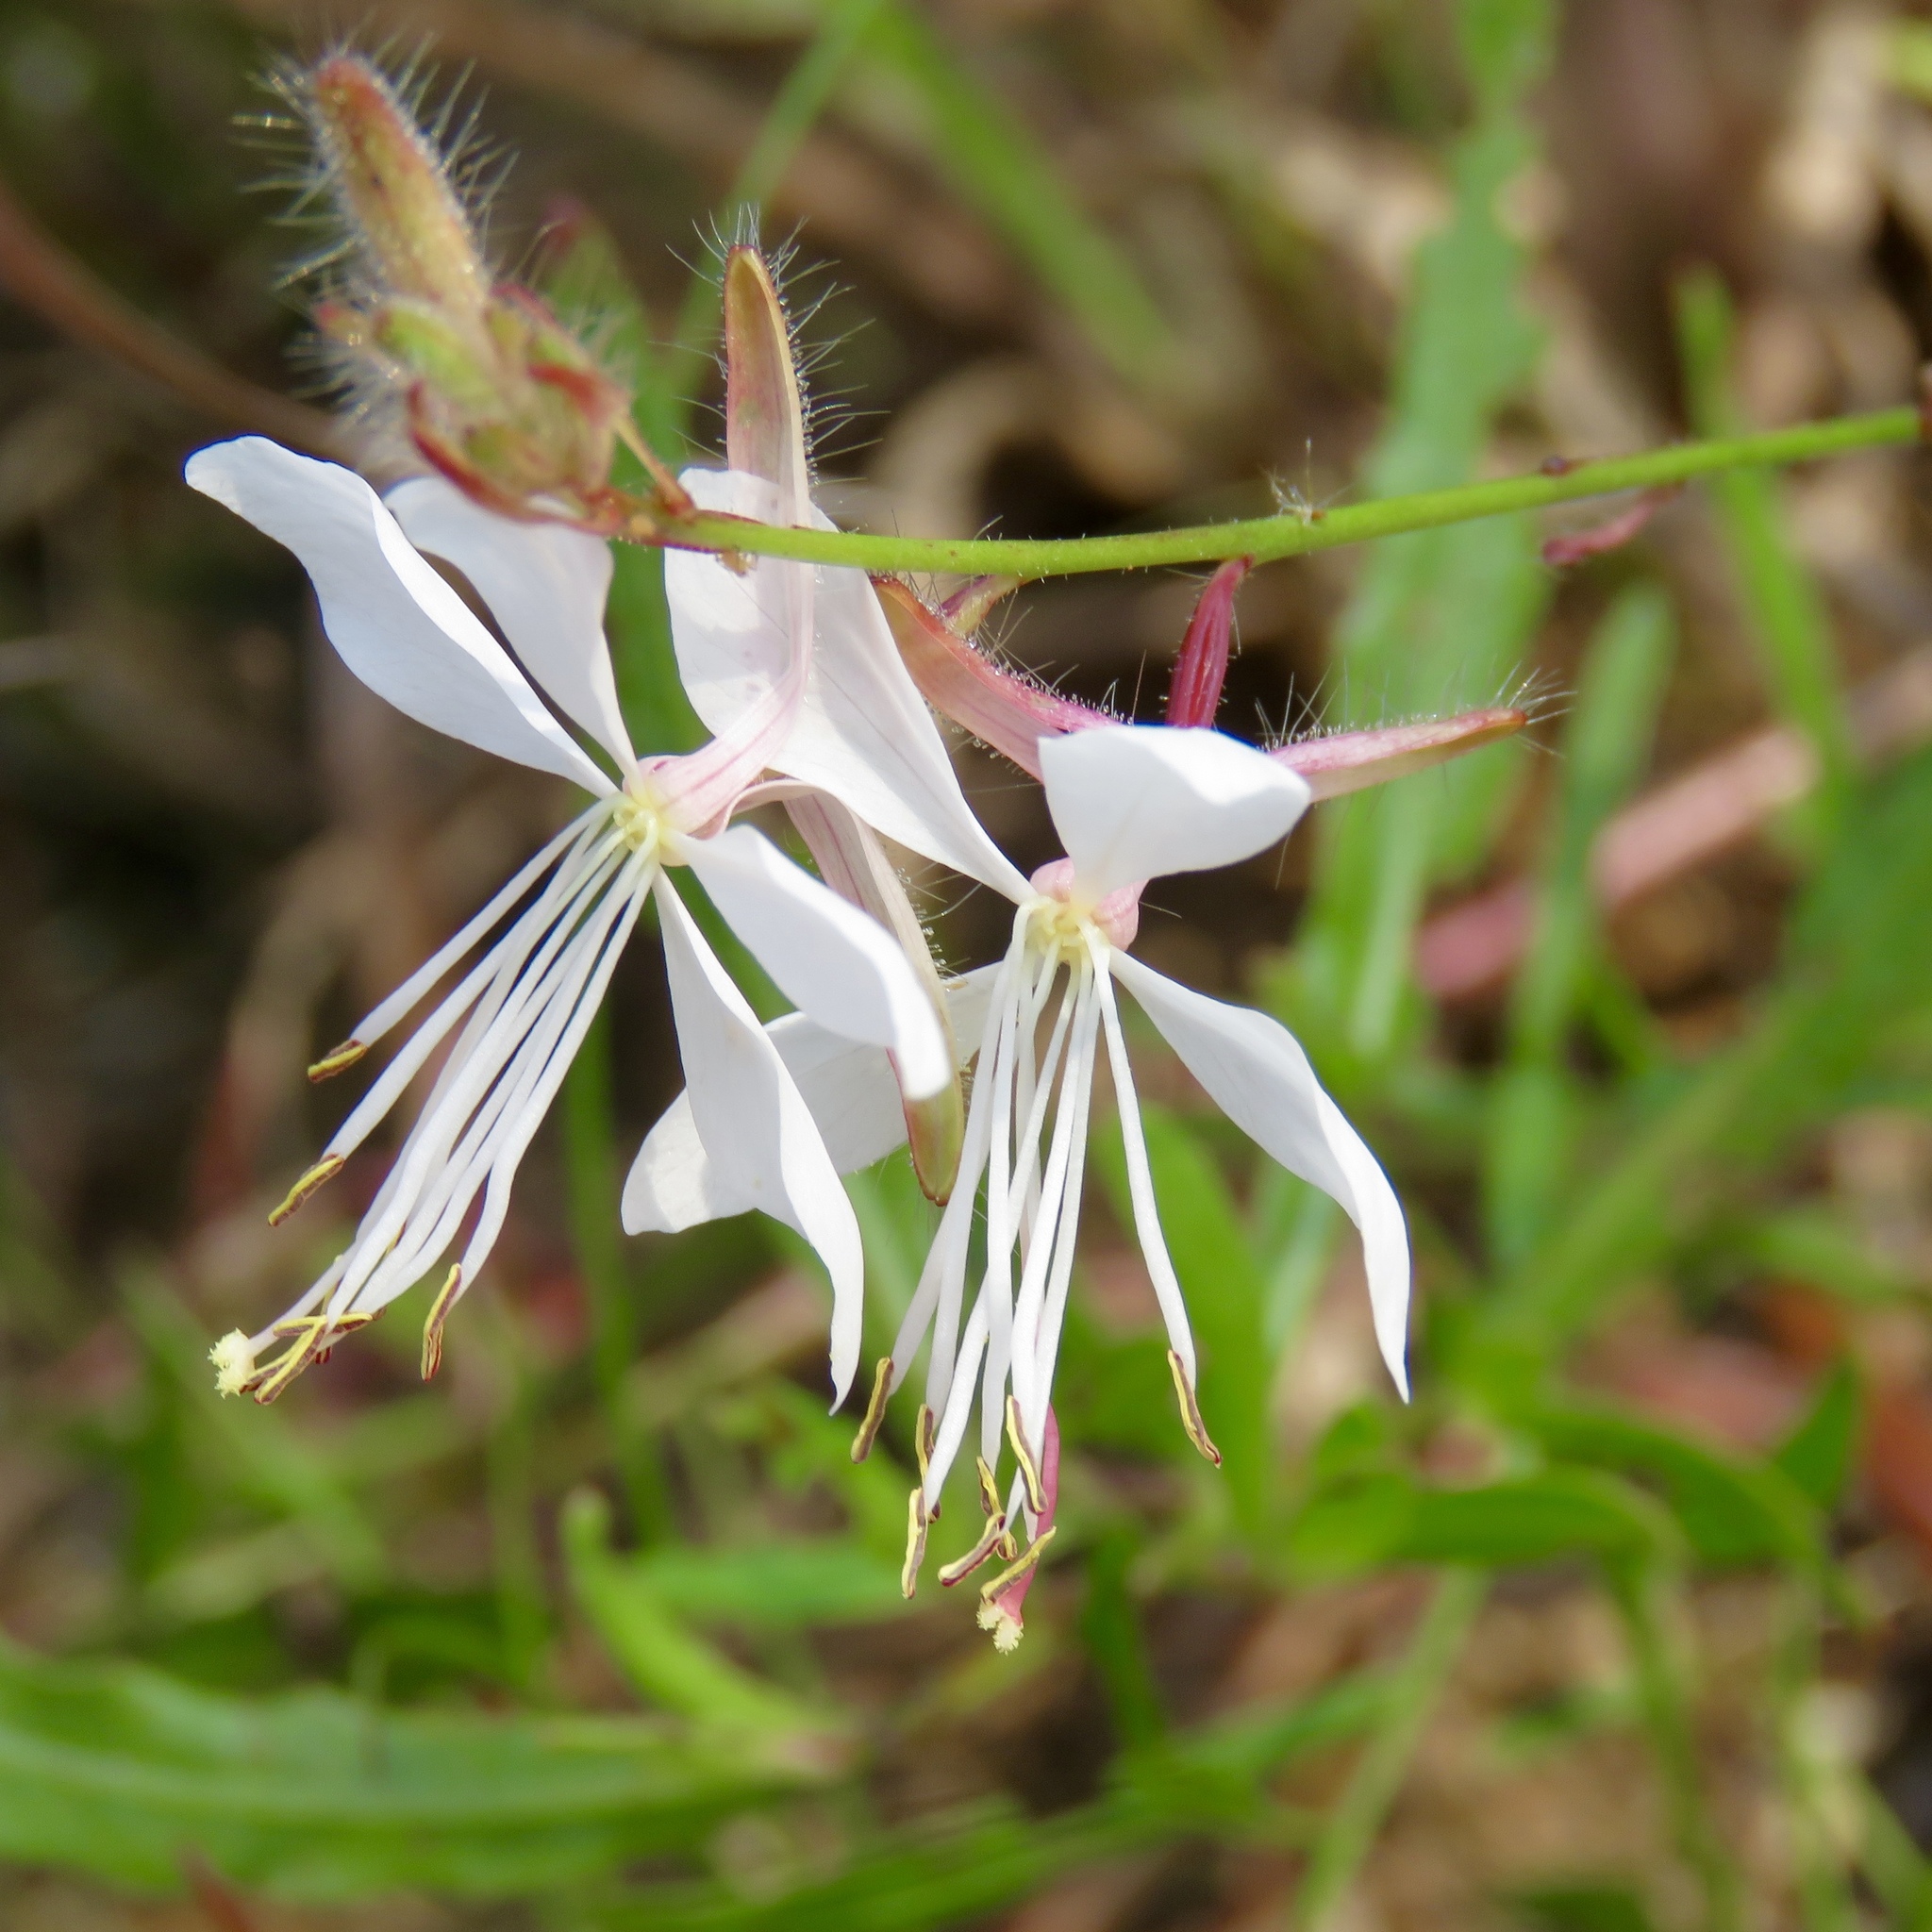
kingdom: Plantae
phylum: Tracheophyta
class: Magnoliopsida
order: Myrtales
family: Onagraceae
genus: Oenothera
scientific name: Oenothera lindheimeri
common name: Lindheimer's beeblossom
